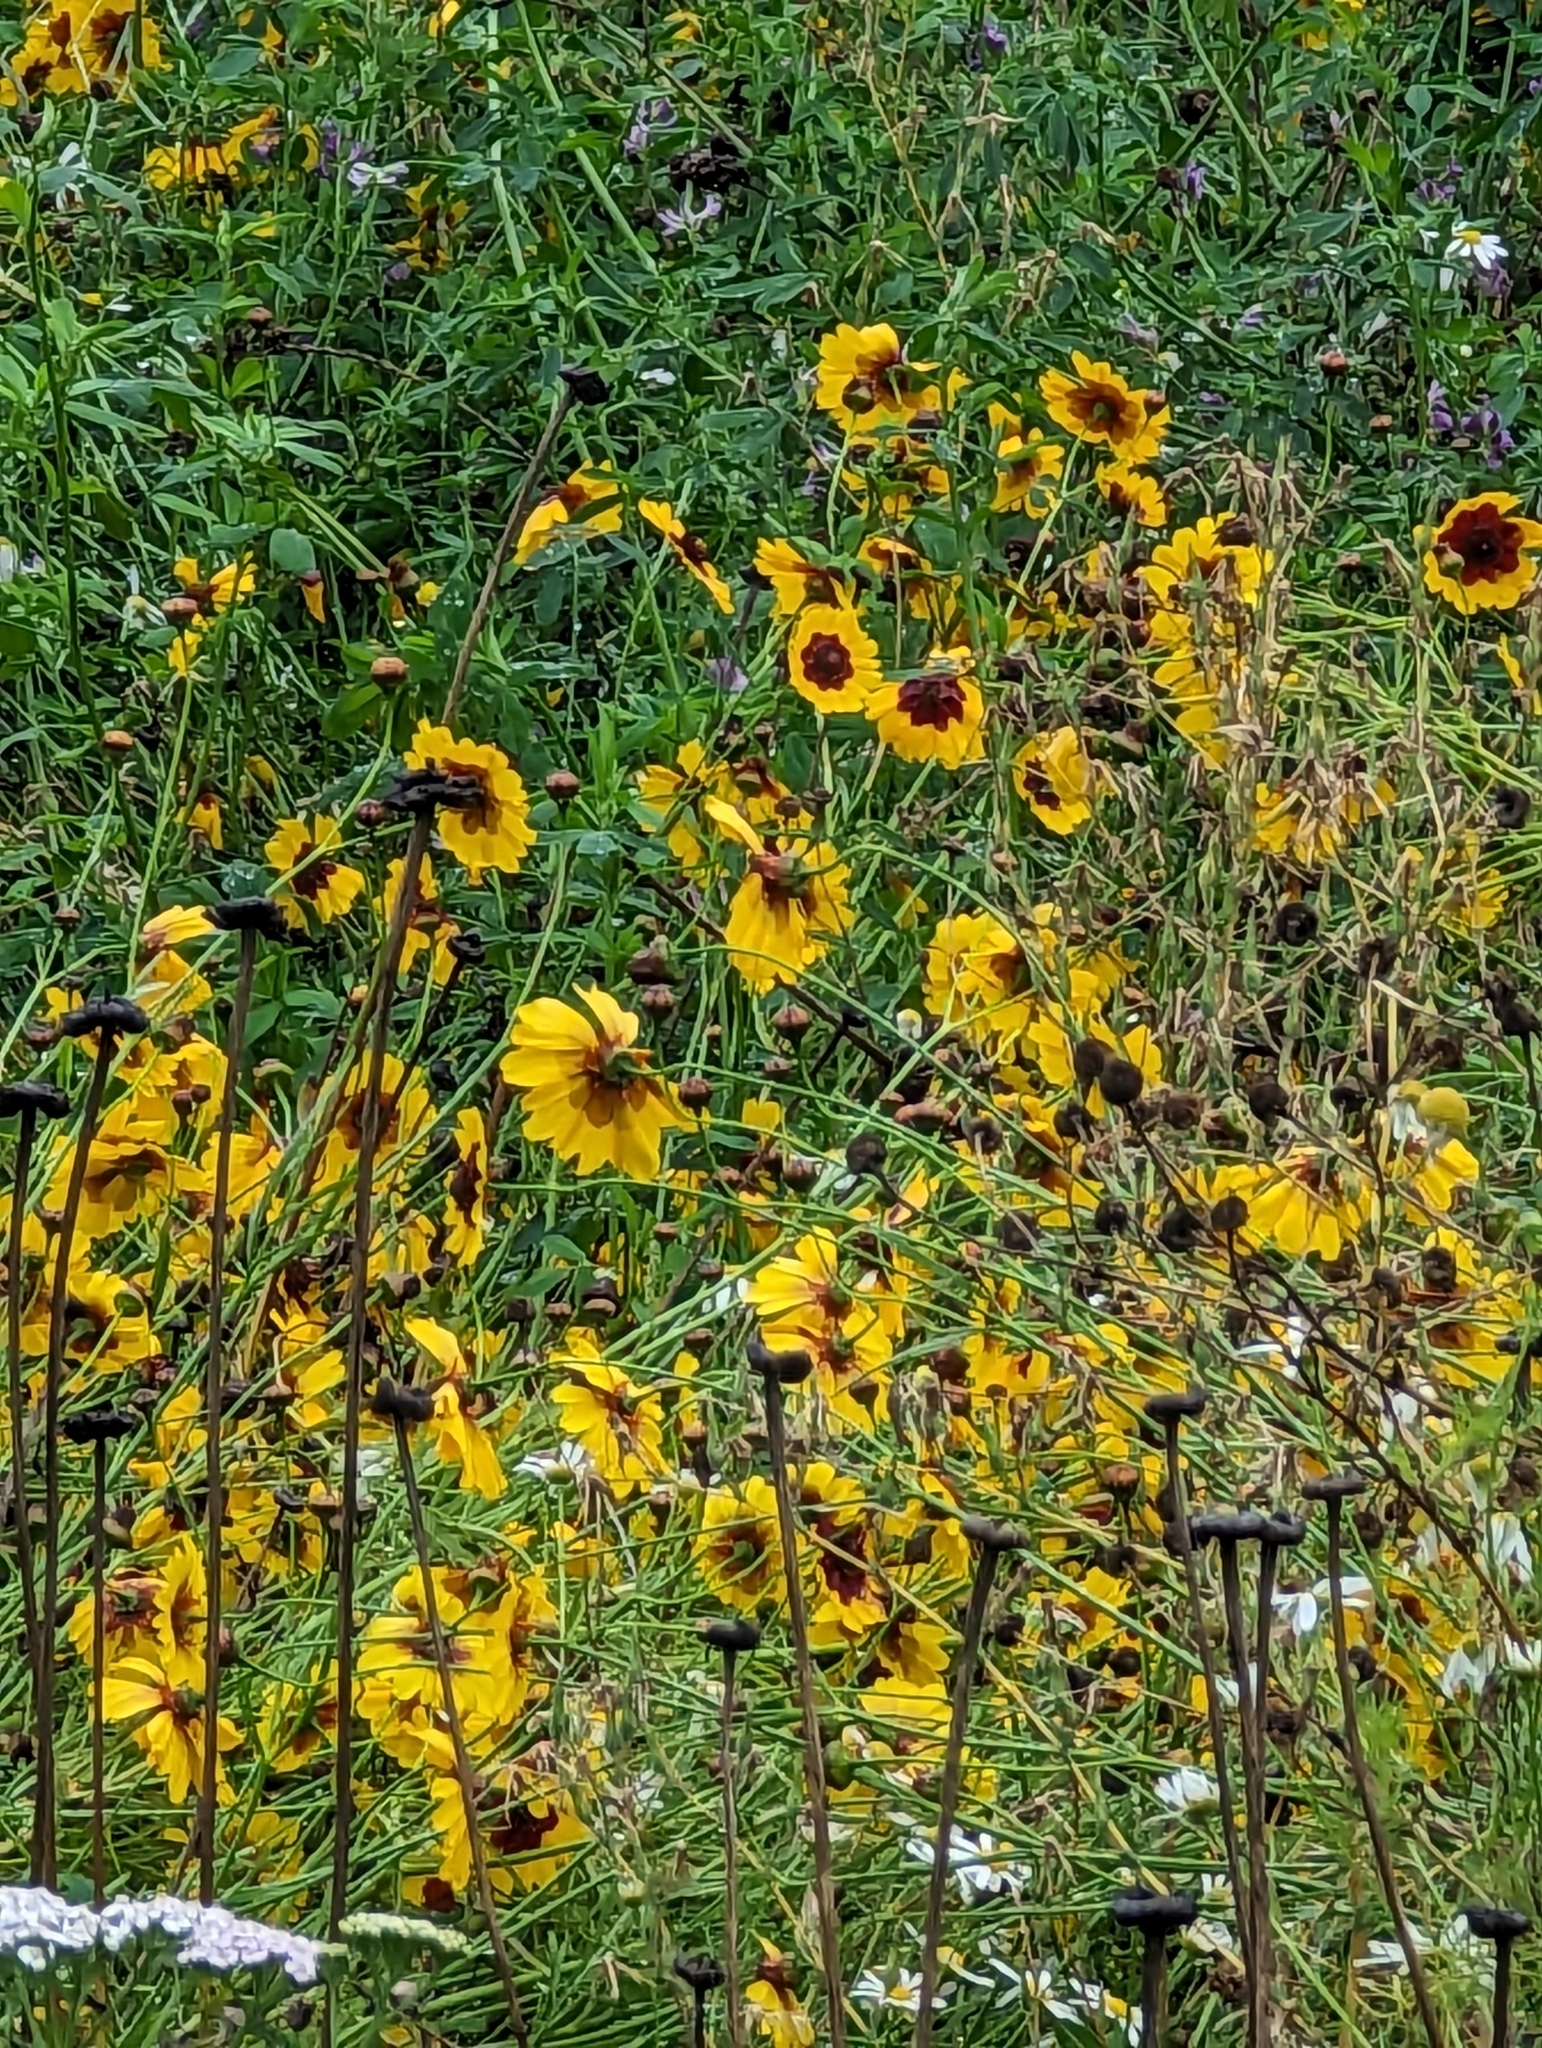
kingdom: Plantae
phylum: Tracheophyta
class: Magnoliopsida
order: Asterales
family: Asteraceae
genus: Coreopsis
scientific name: Coreopsis tinctoria
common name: Garden tickseed
